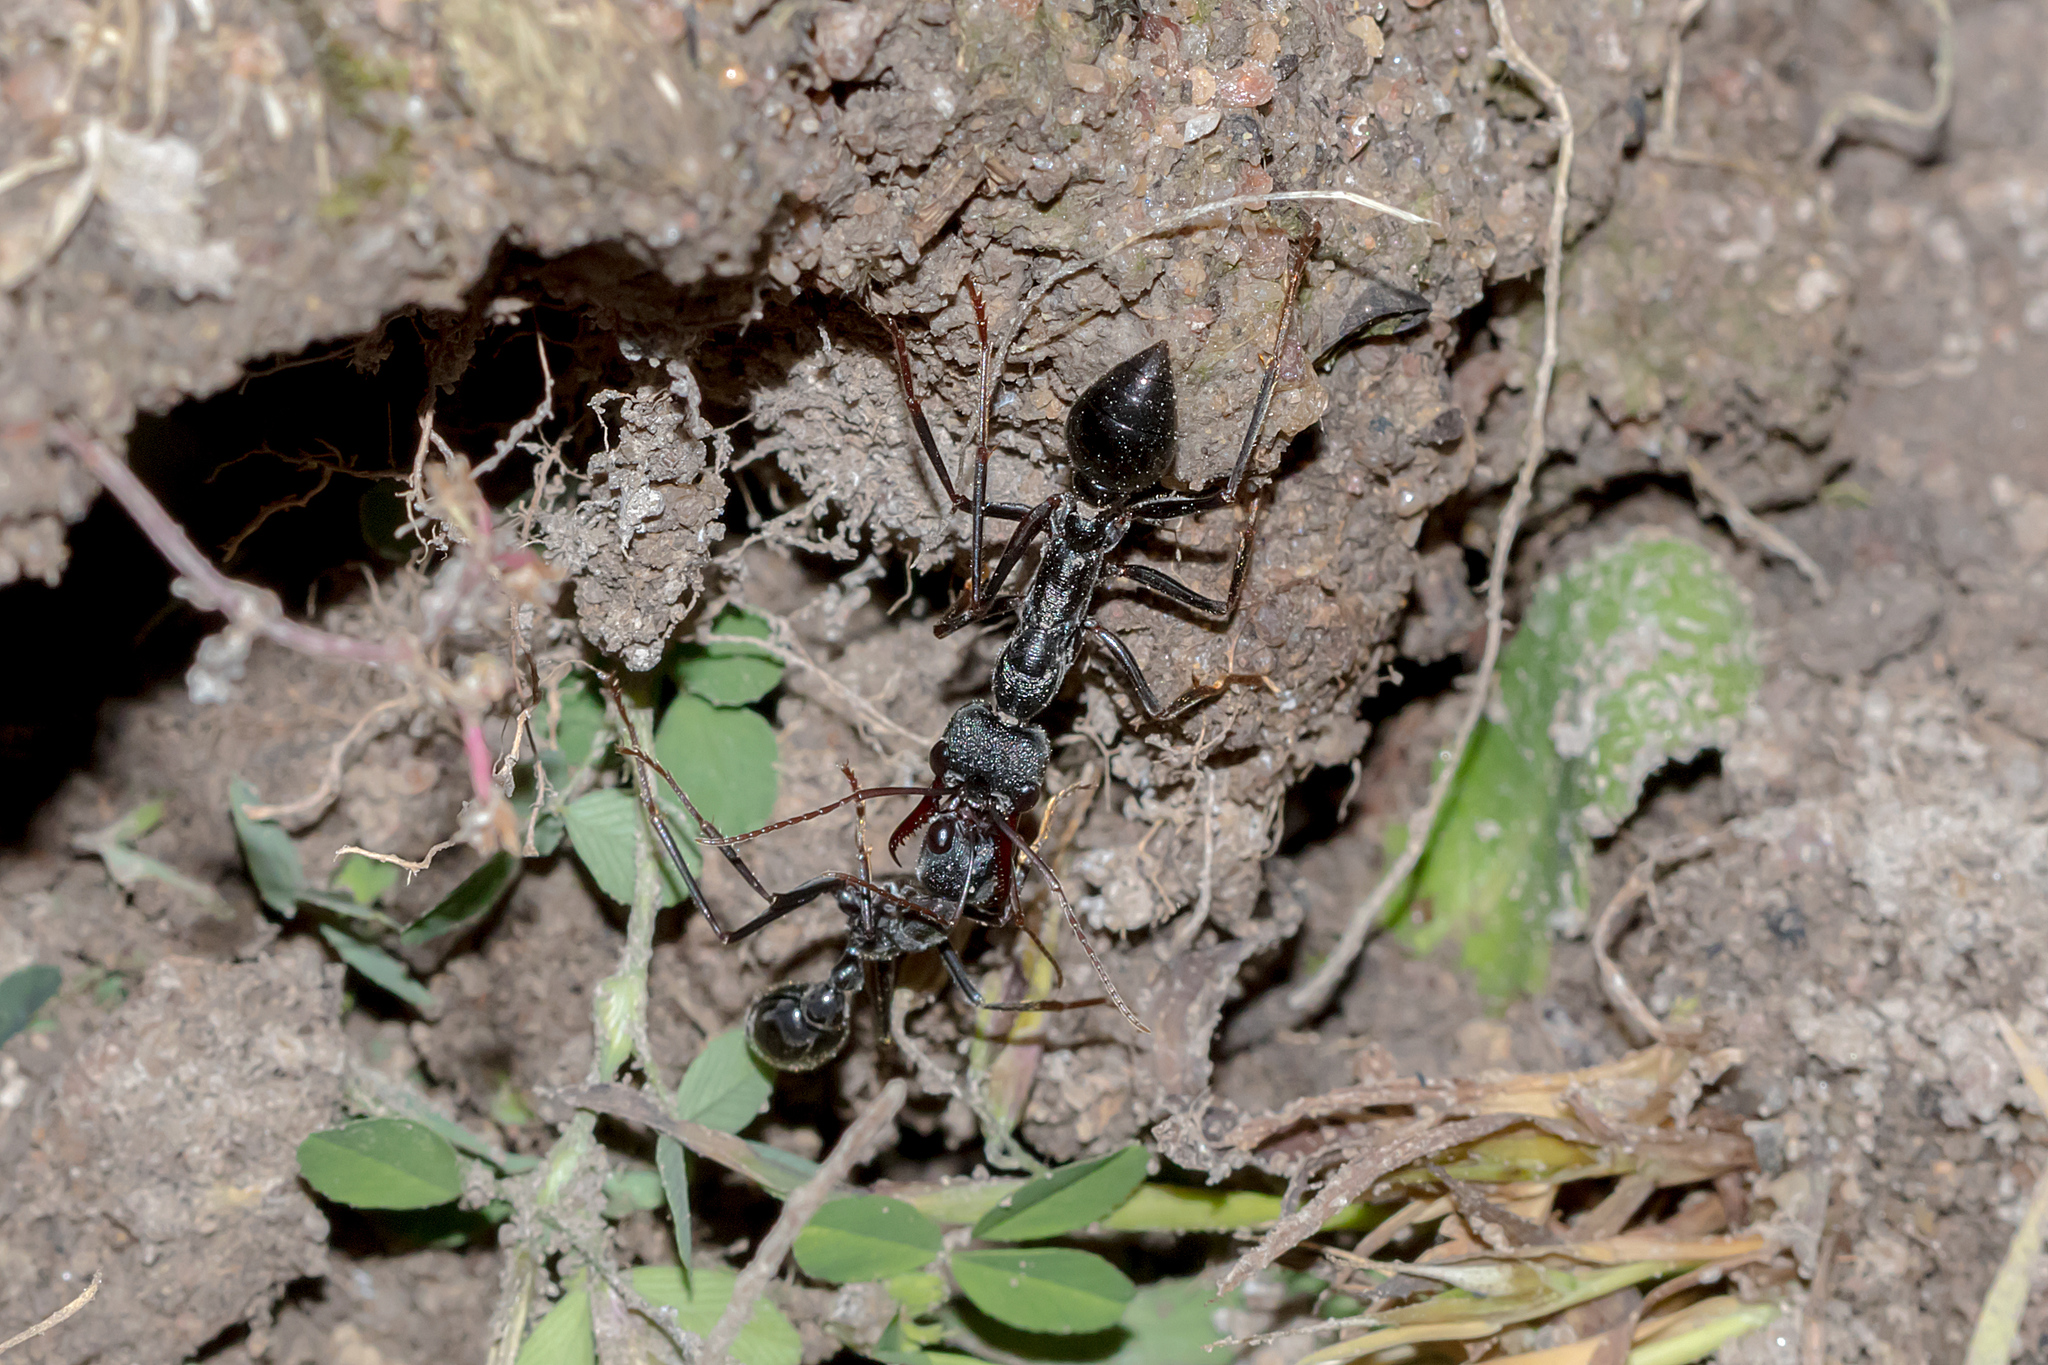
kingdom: Animalia
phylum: Arthropoda
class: Insecta
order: Hymenoptera
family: Formicidae
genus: Myrmecia
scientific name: Myrmecia pyriformis
